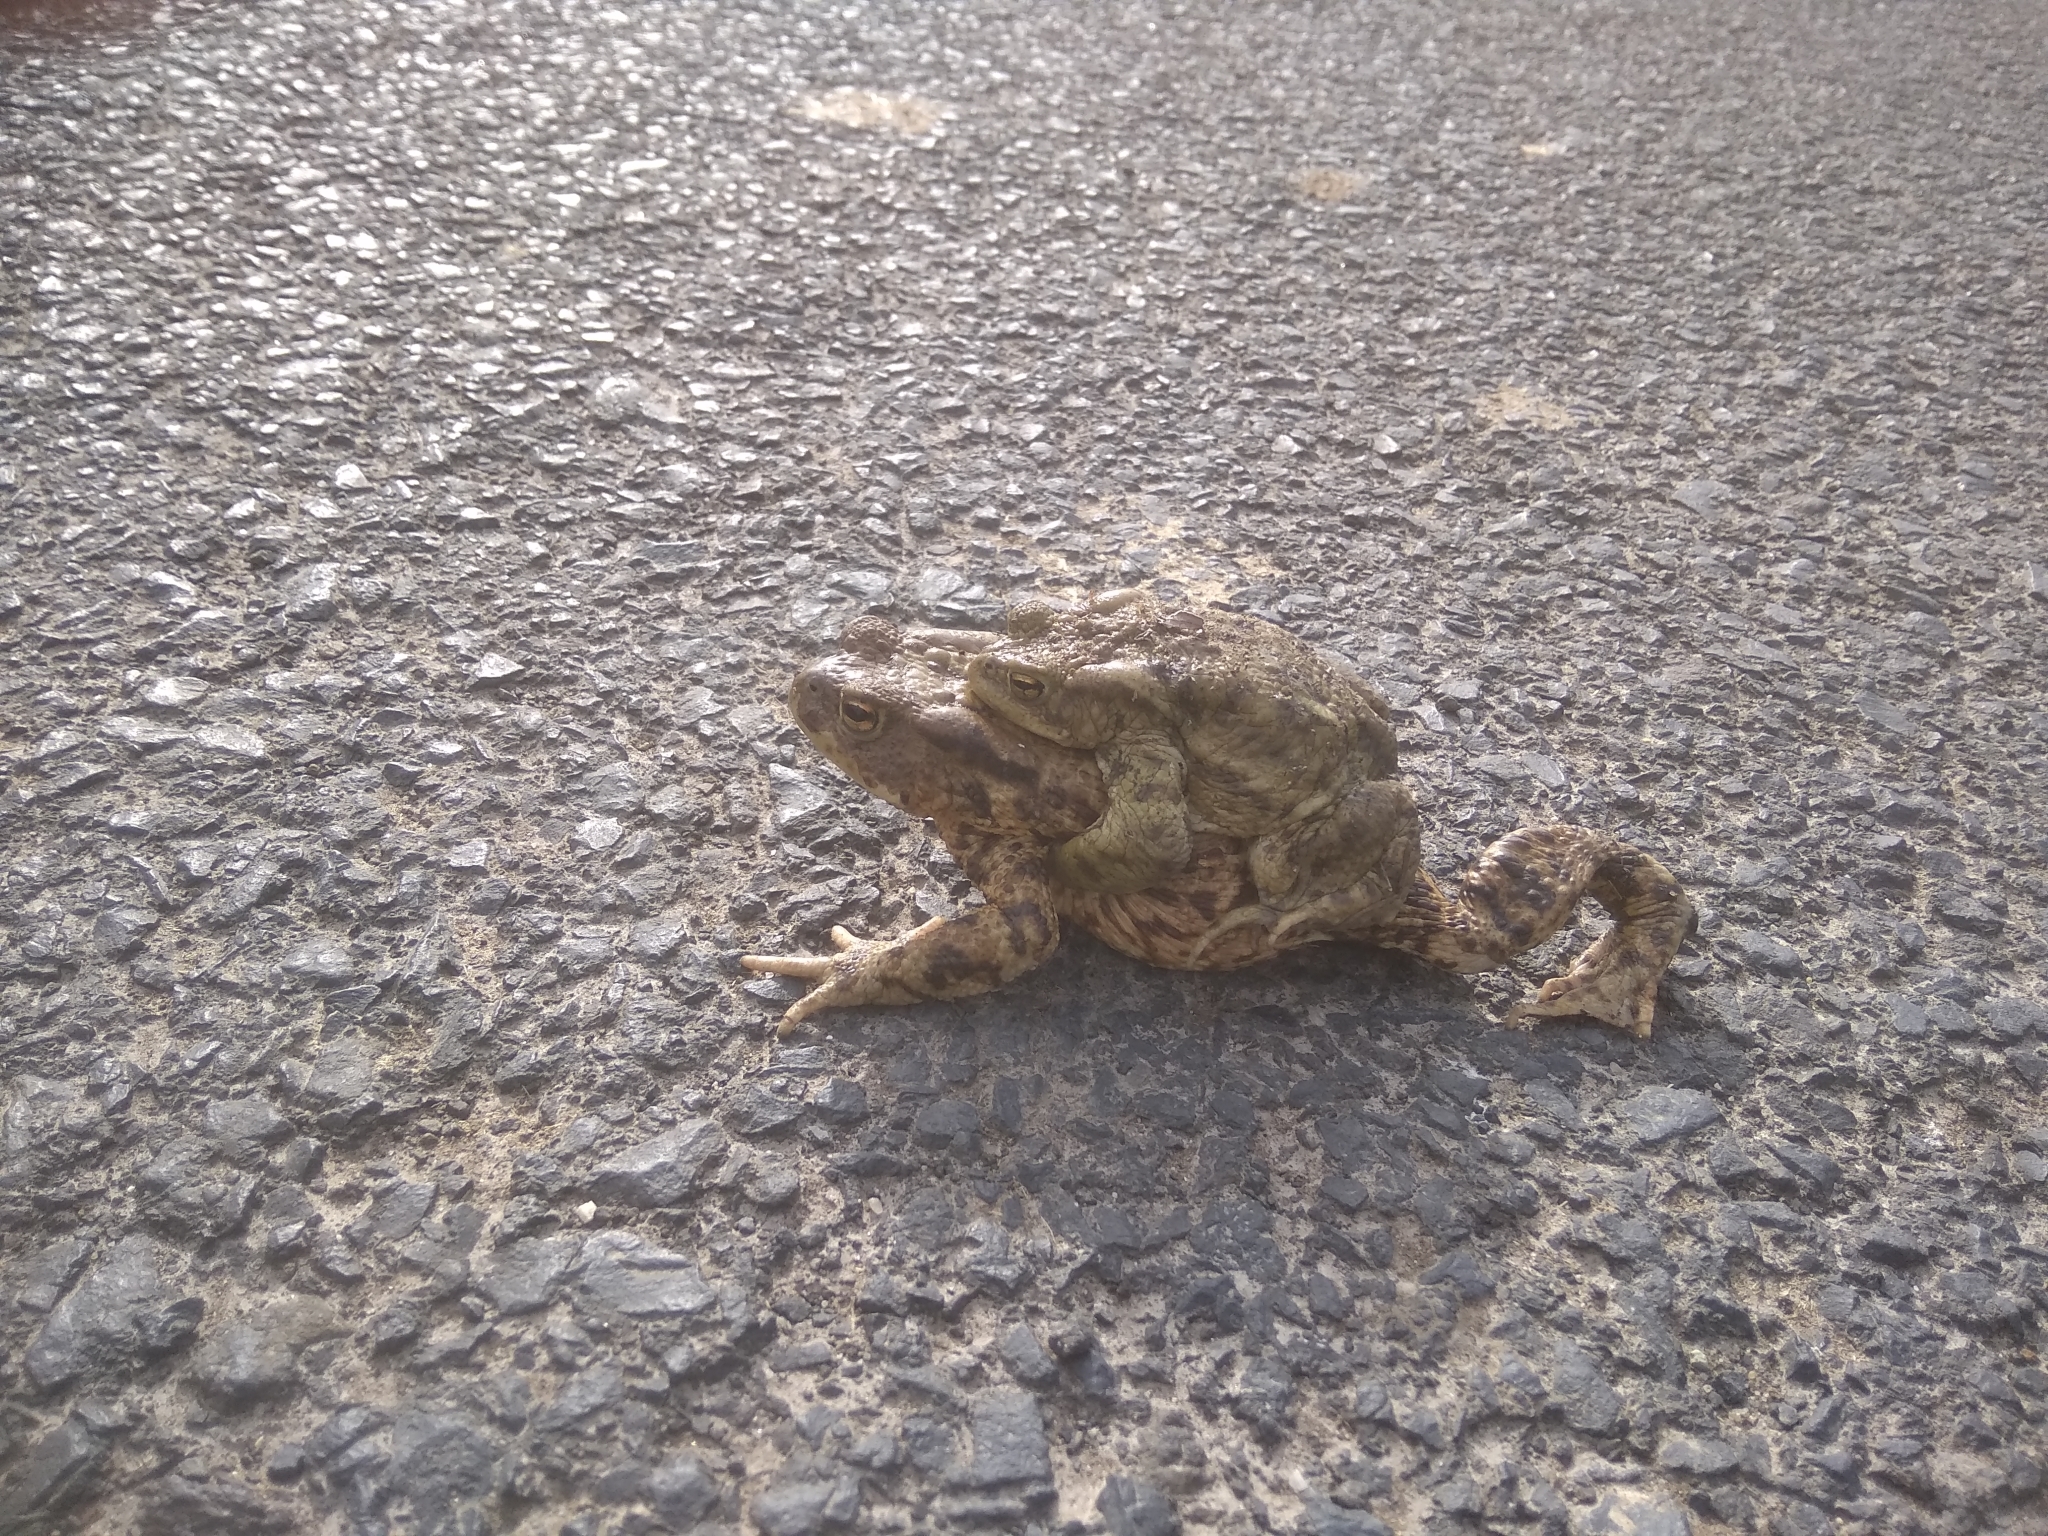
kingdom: Animalia
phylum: Chordata
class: Amphibia
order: Anura
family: Bufonidae
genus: Bufo
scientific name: Bufo bufo
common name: Common toad
